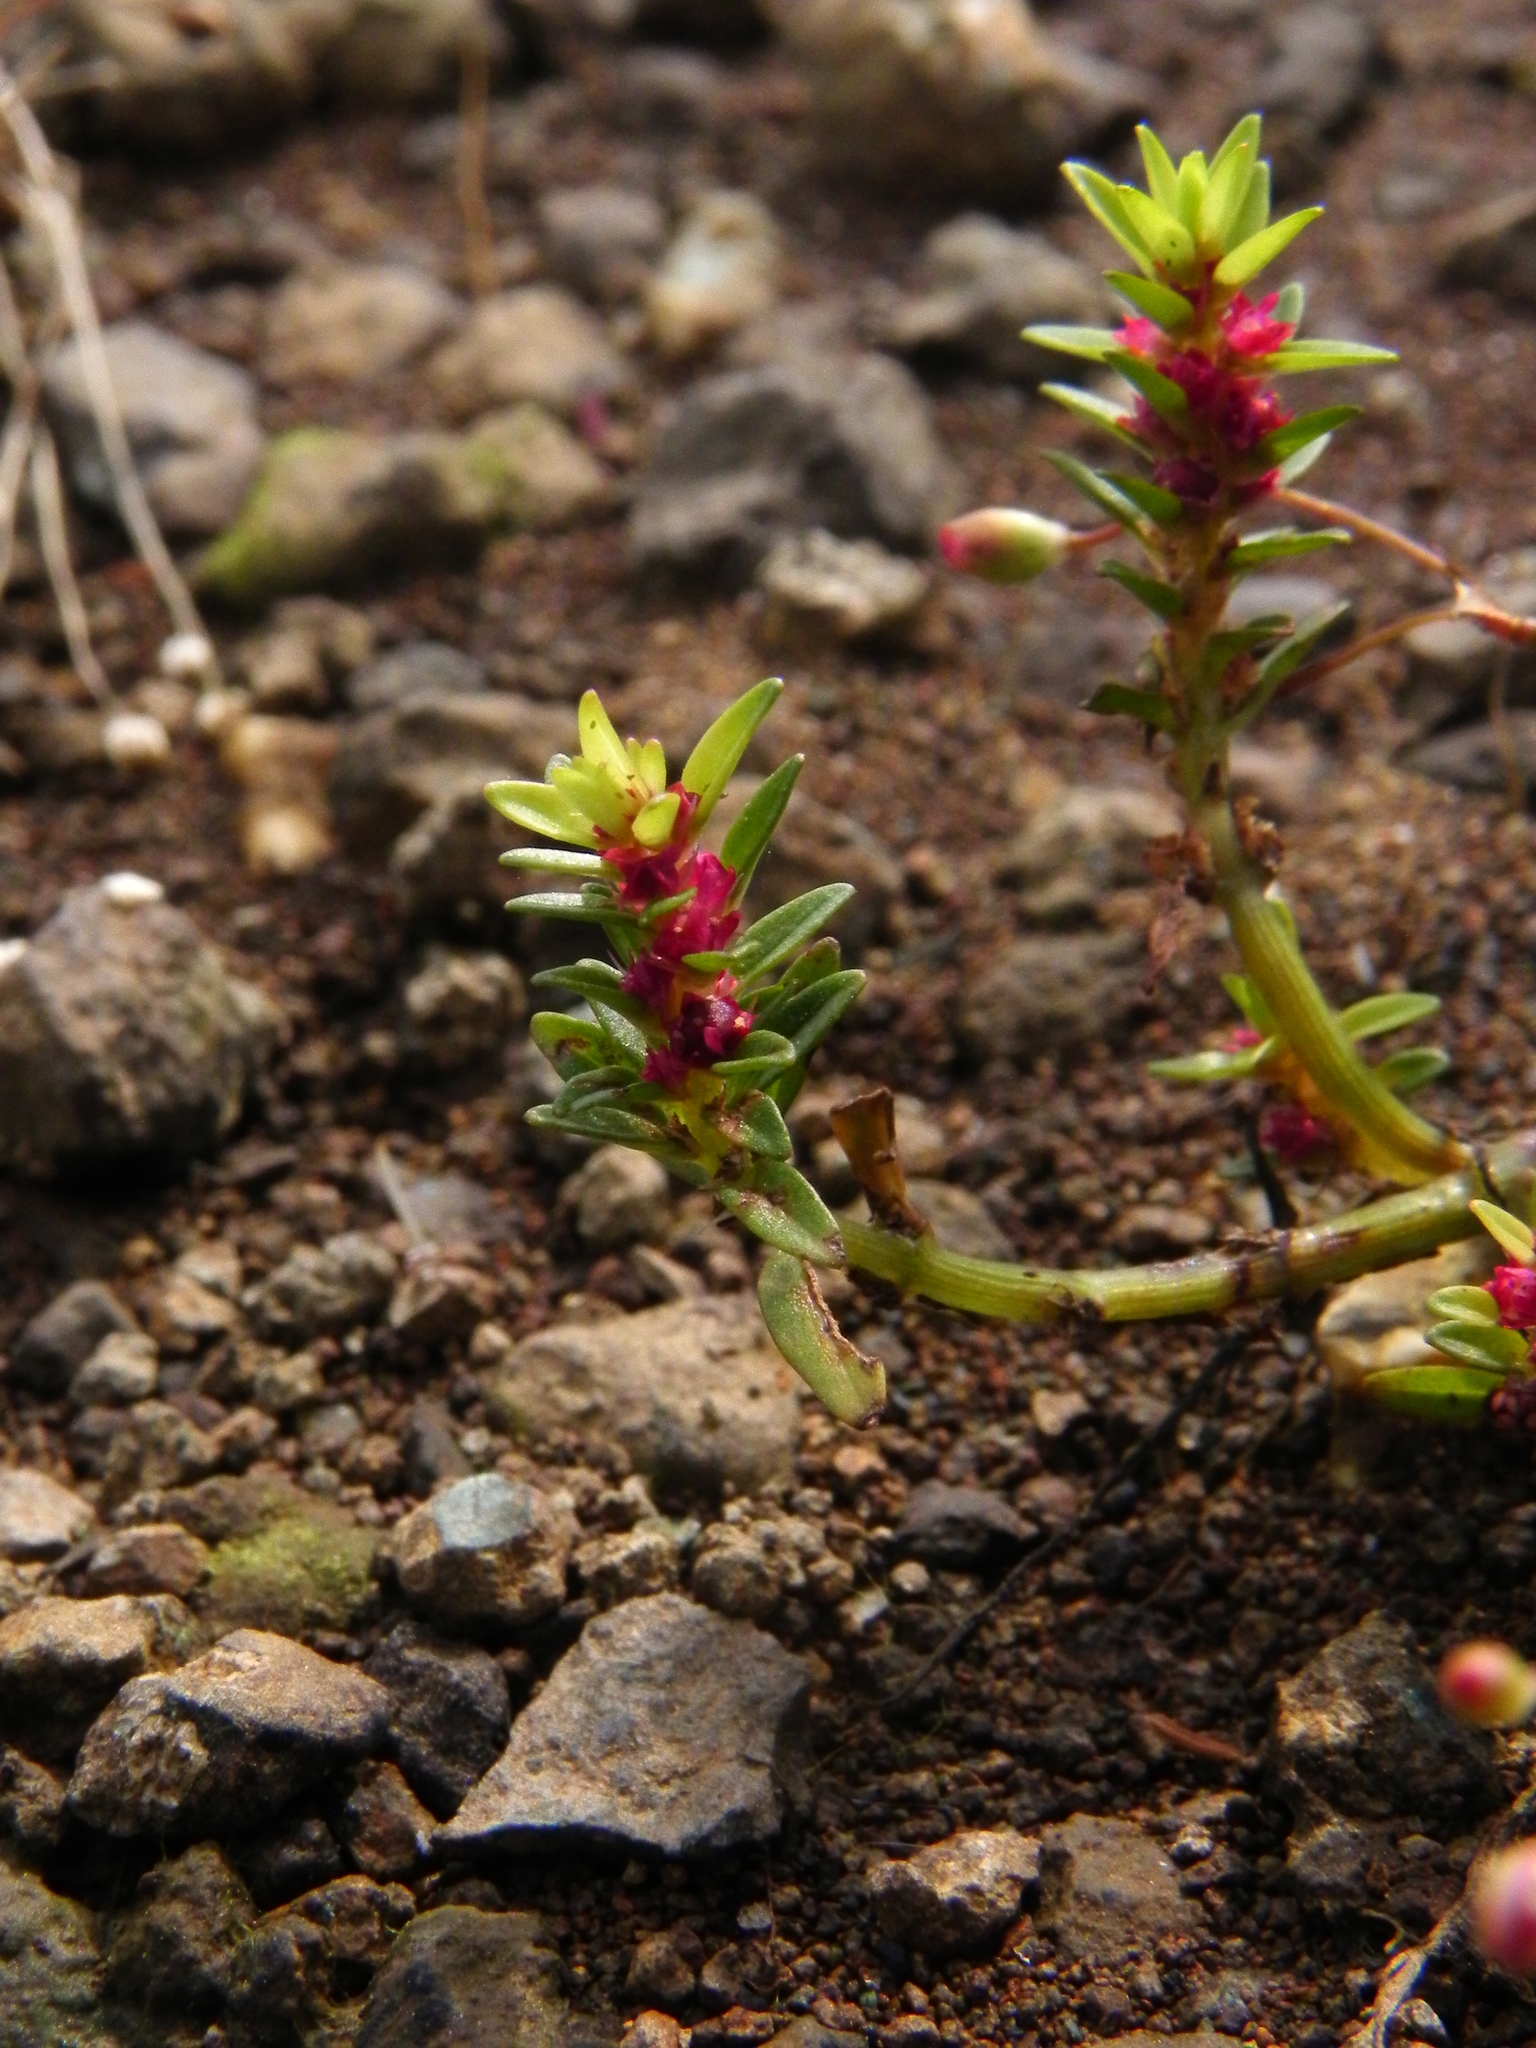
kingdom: Plantae
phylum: Tracheophyta
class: Magnoliopsida
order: Myrtales
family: Lythraceae
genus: Rotala
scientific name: Rotala densiflora
